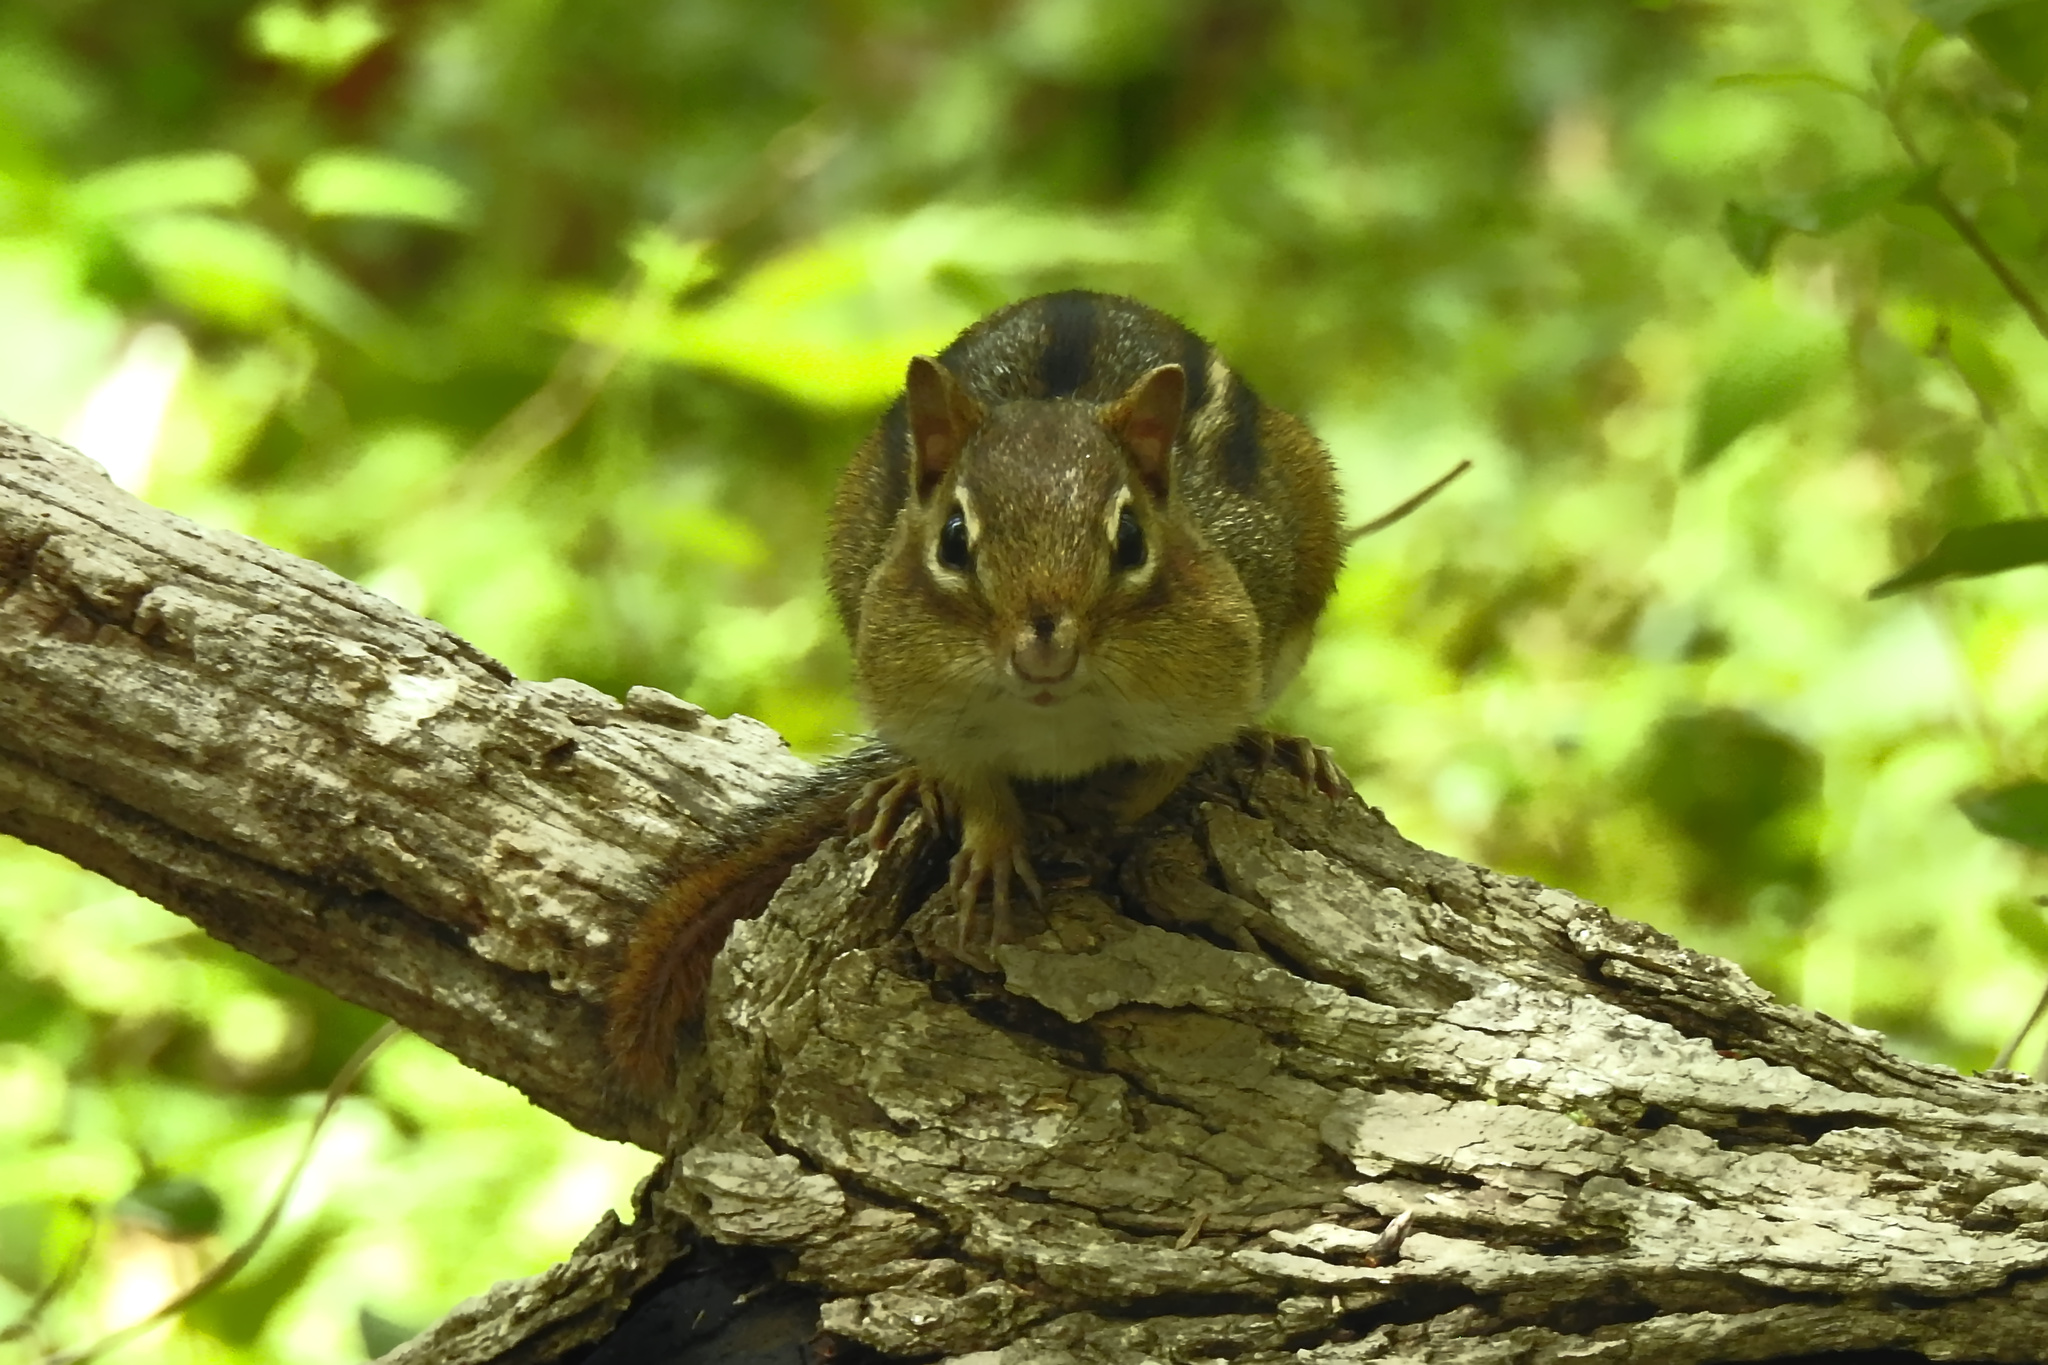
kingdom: Animalia
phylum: Chordata
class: Mammalia
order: Rodentia
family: Sciuridae
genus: Tamias
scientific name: Tamias striatus
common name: Eastern chipmunk
